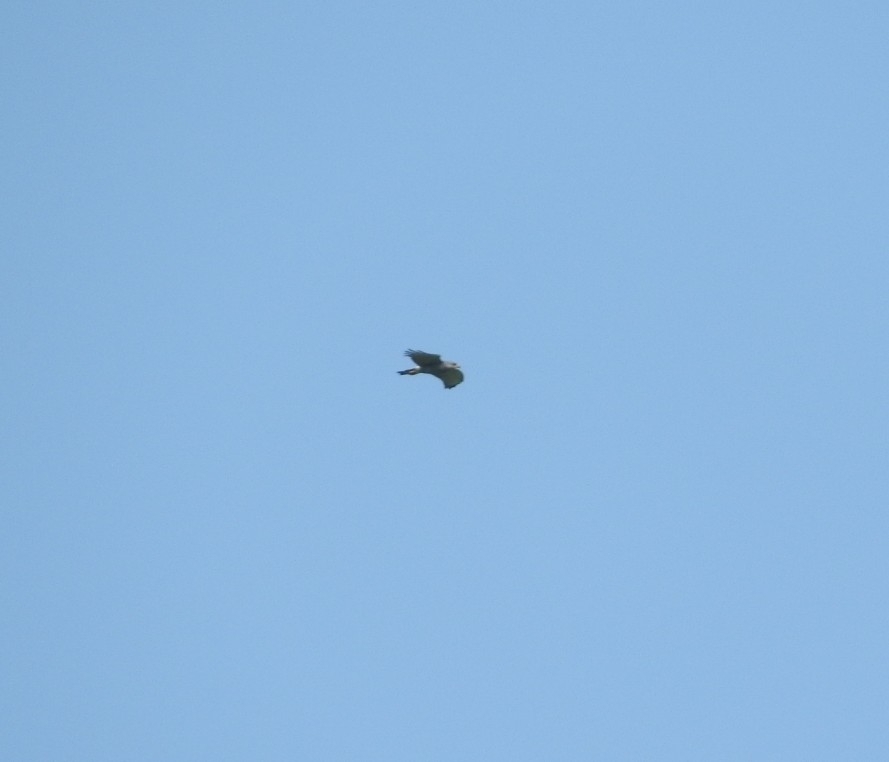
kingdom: Animalia
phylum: Chordata
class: Aves
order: Accipitriformes
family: Accipitridae
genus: Buteo
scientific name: Buteo nitidus
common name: Grey-lined hawk
